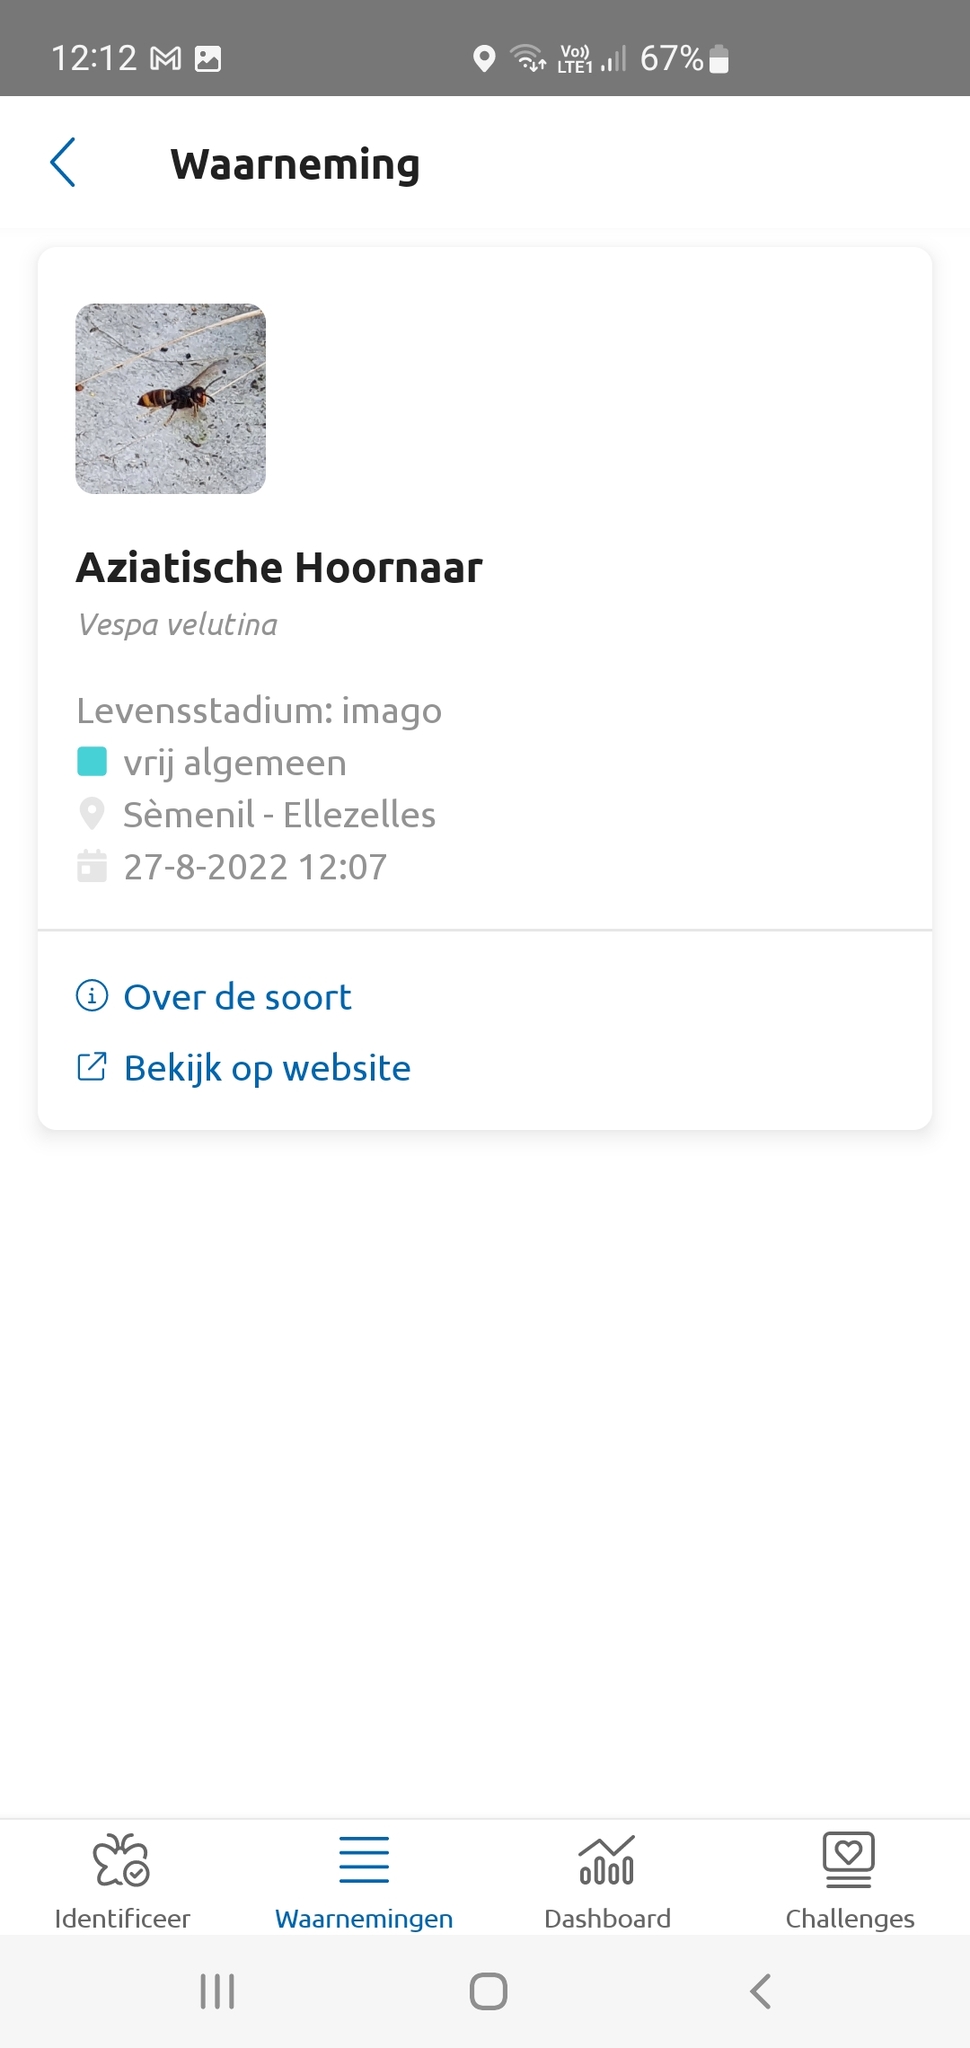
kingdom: Animalia
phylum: Arthropoda
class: Insecta
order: Hymenoptera
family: Vespidae
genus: Vespa
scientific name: Vespa velutina
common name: Asian hornet
